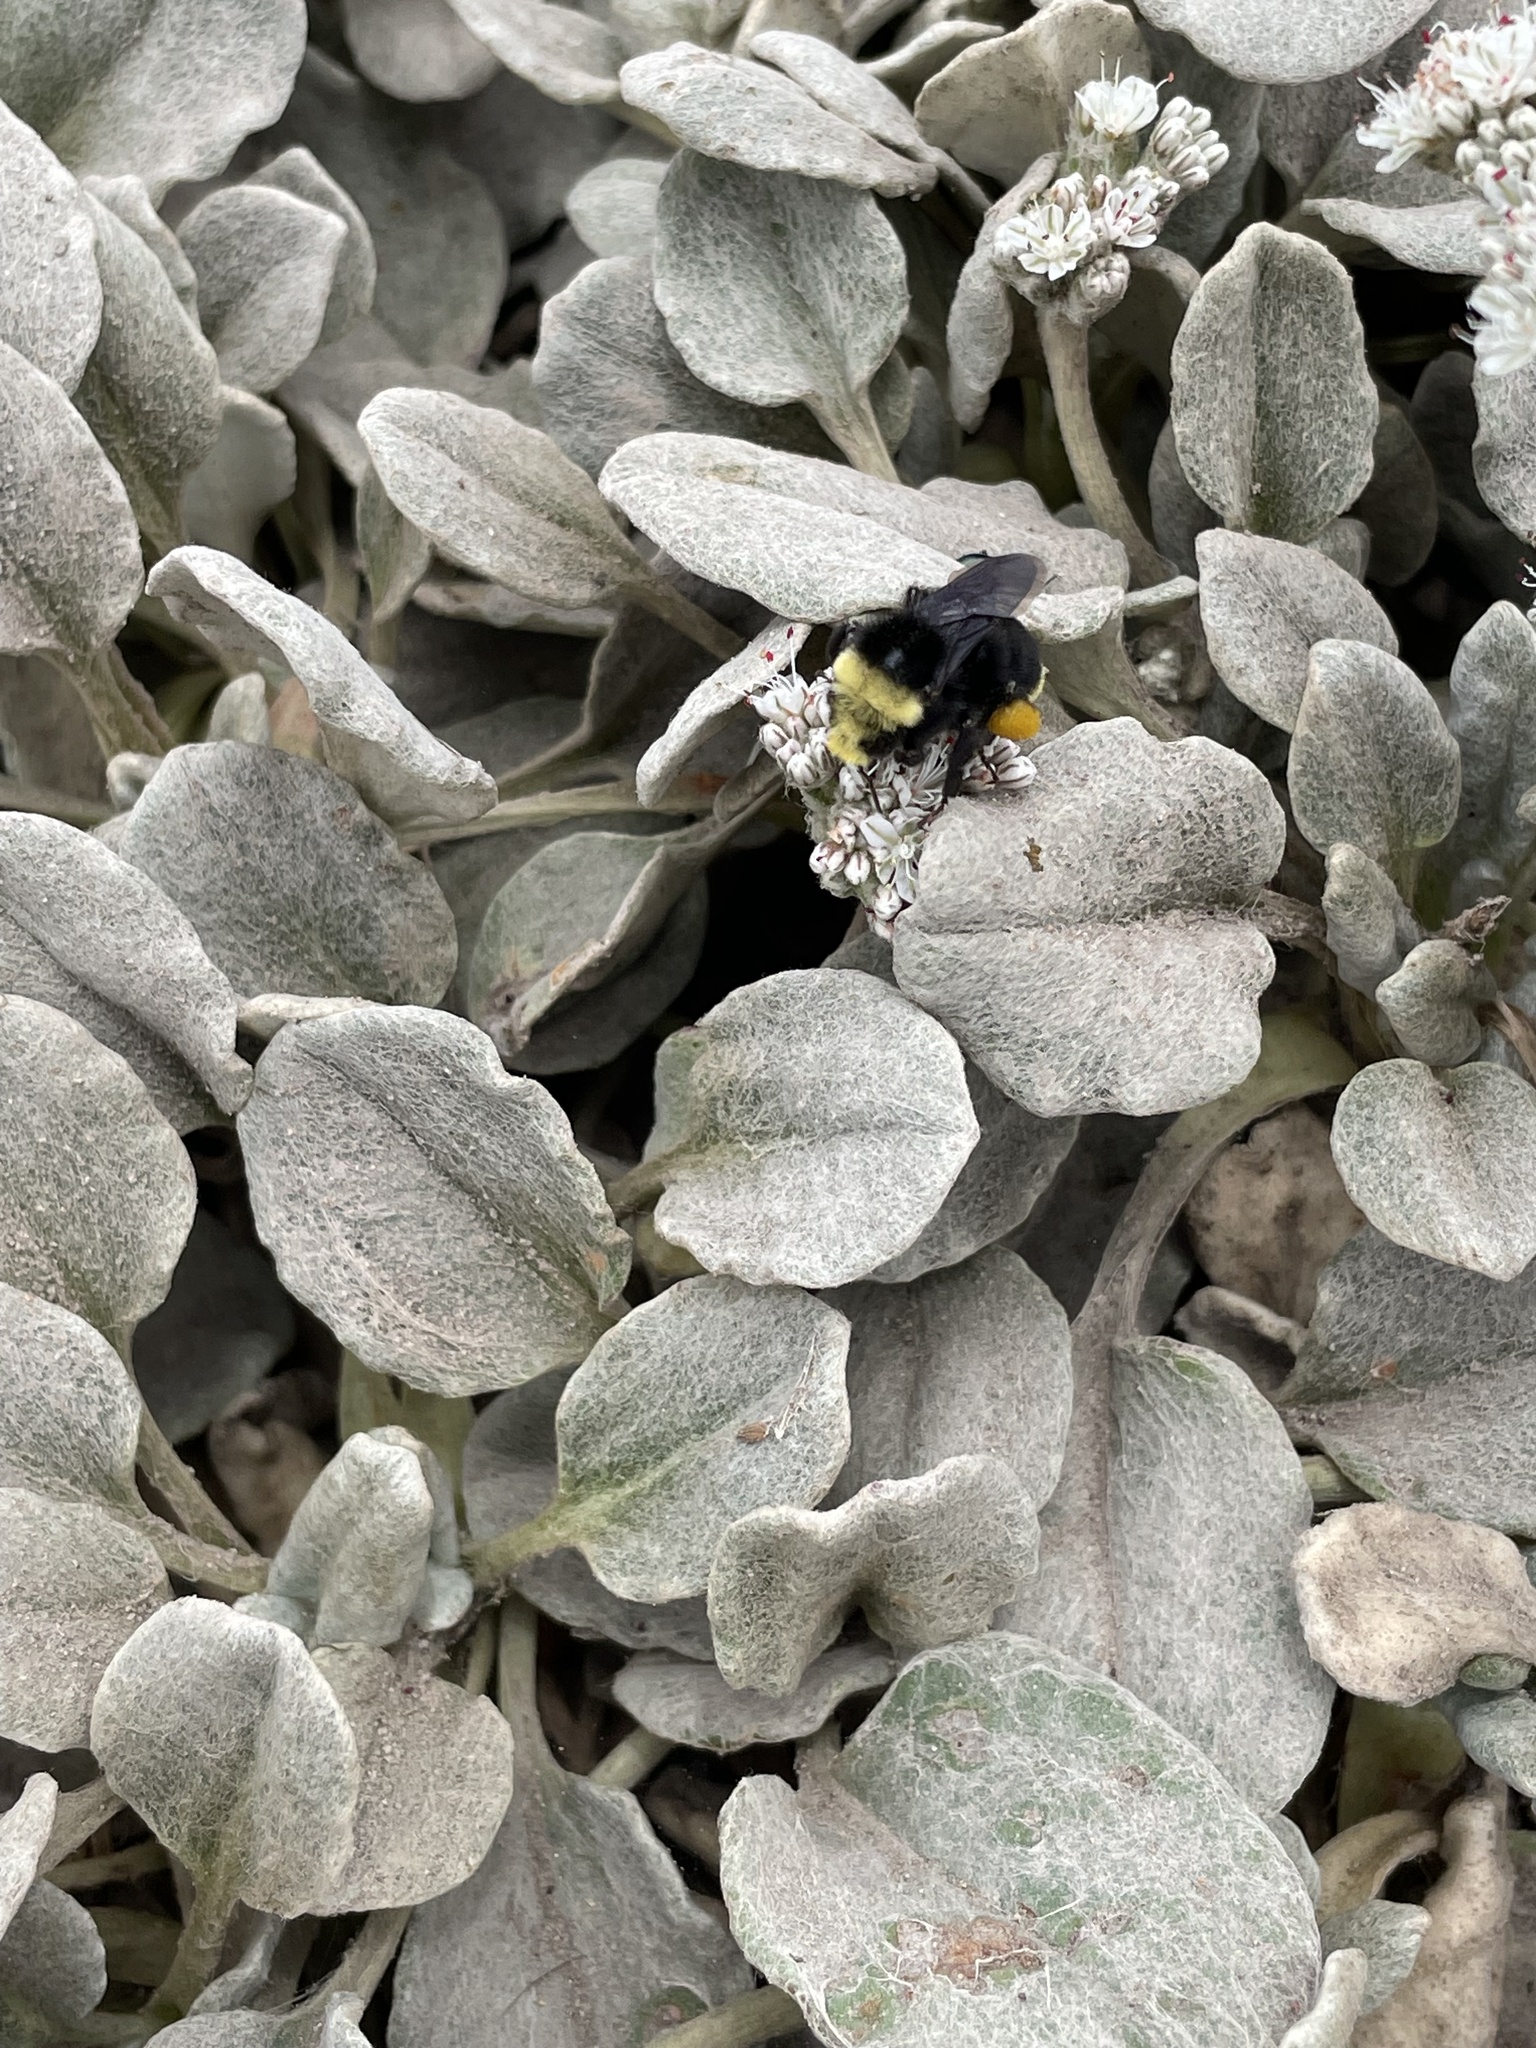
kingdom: Animalia
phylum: Arthropoda
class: Insecta
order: Hymenoptera
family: Apidae
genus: Bombus
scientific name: Bombus vosnesenskii
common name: Vosnesensky bumble bee
